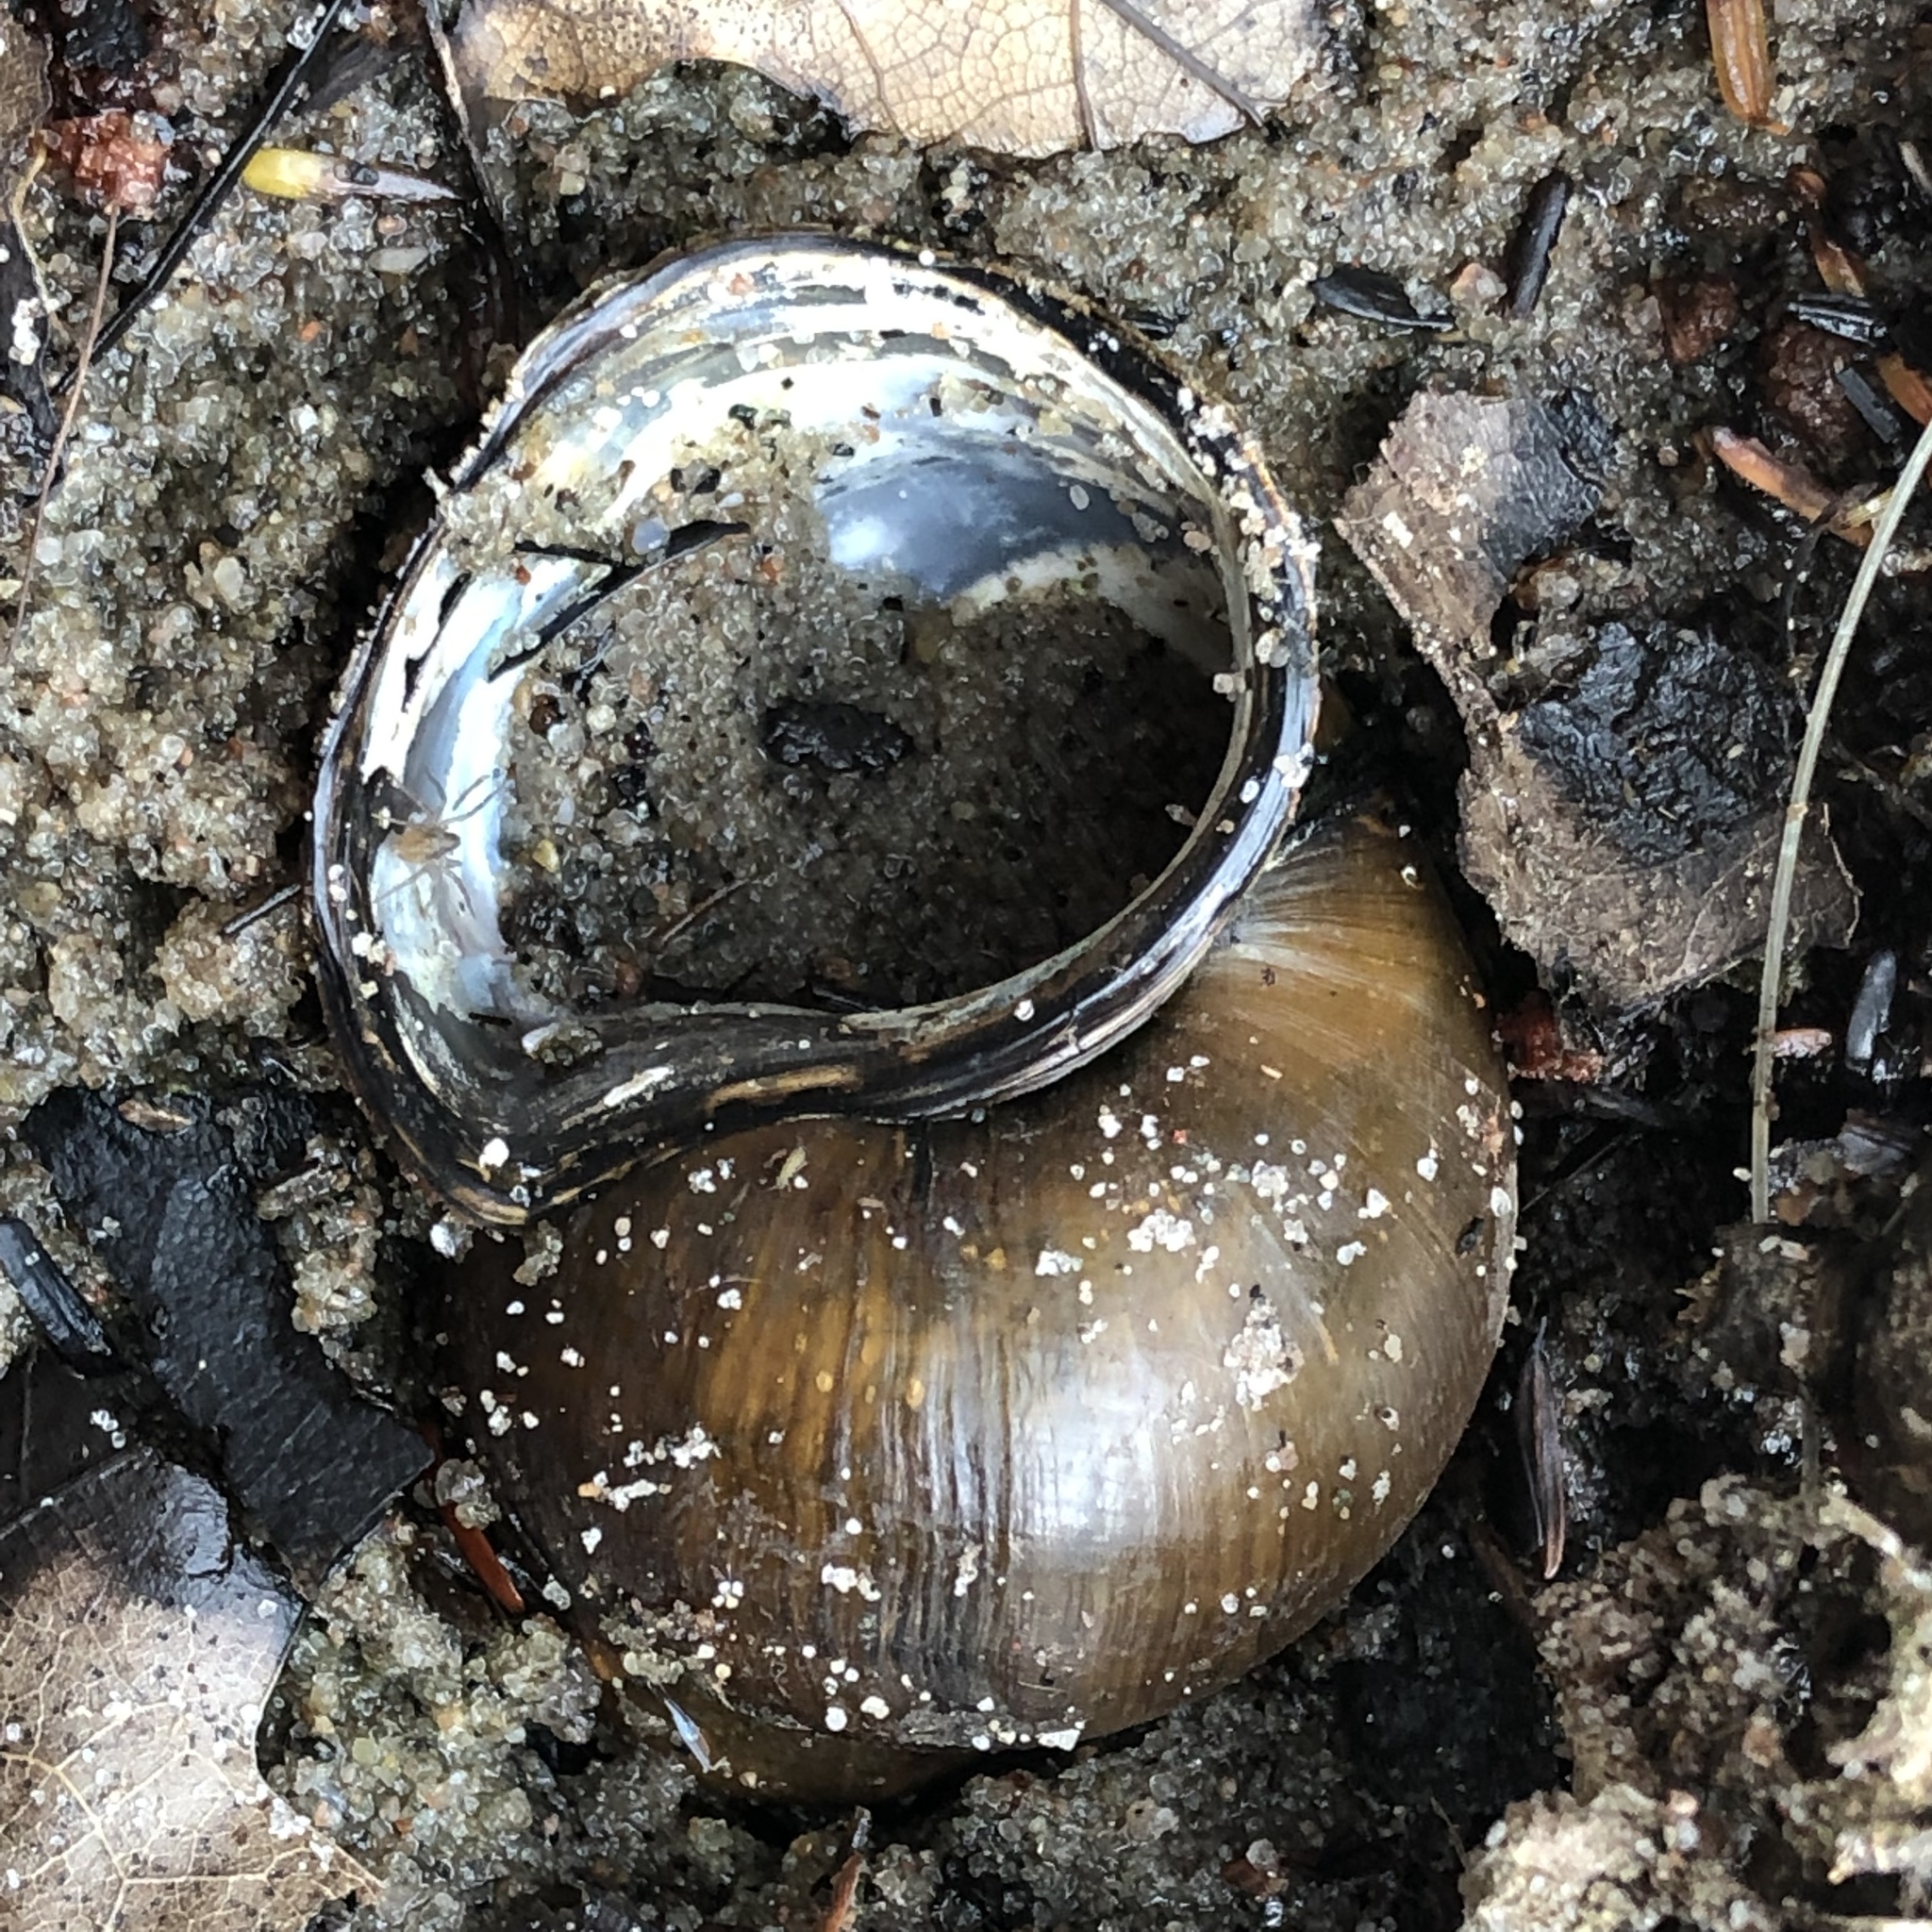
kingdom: Animalia
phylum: Mollusca
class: Gastropoda
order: Architaenioglossa
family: Viviparidae
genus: Cipangopaludina
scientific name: Cipangopaludina chinensis
